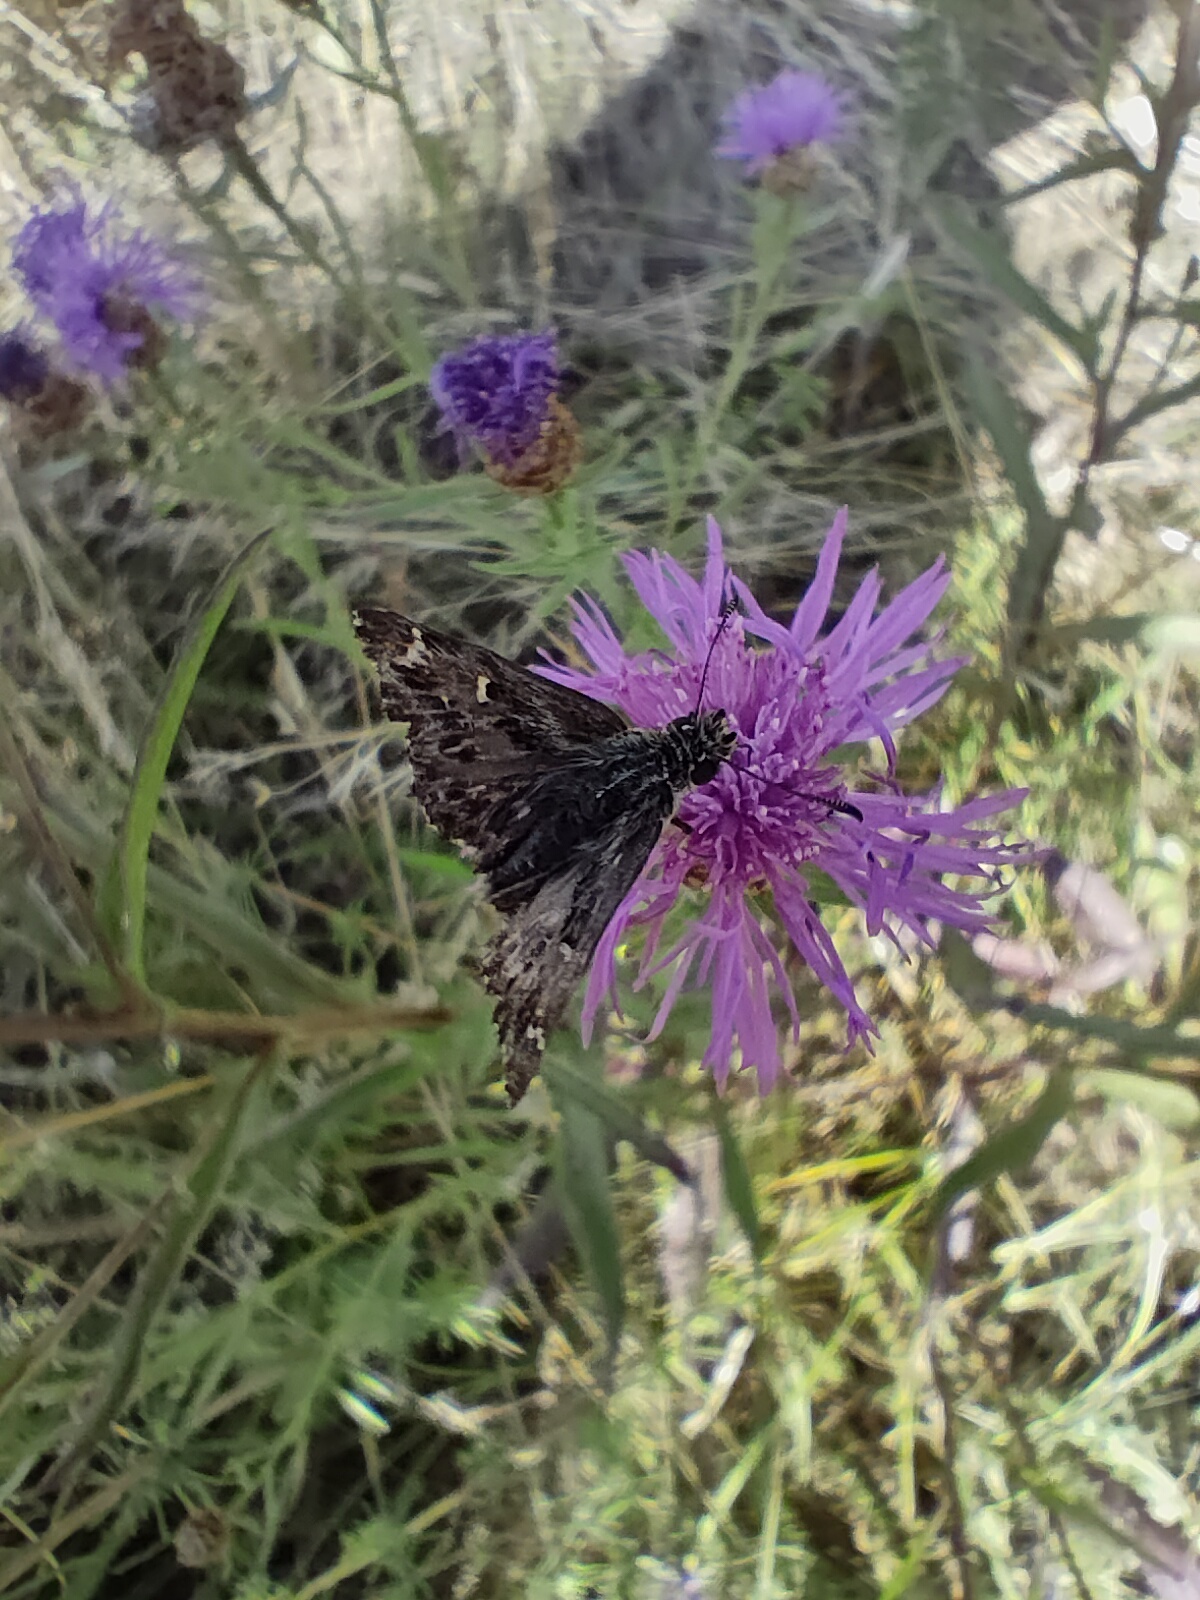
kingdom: Animalia
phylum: Arthropoda
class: Insecta
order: Lepidoptera
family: Hesperiidae
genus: Carcharodus
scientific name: Carcharodus alceae
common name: Mallow skipper
